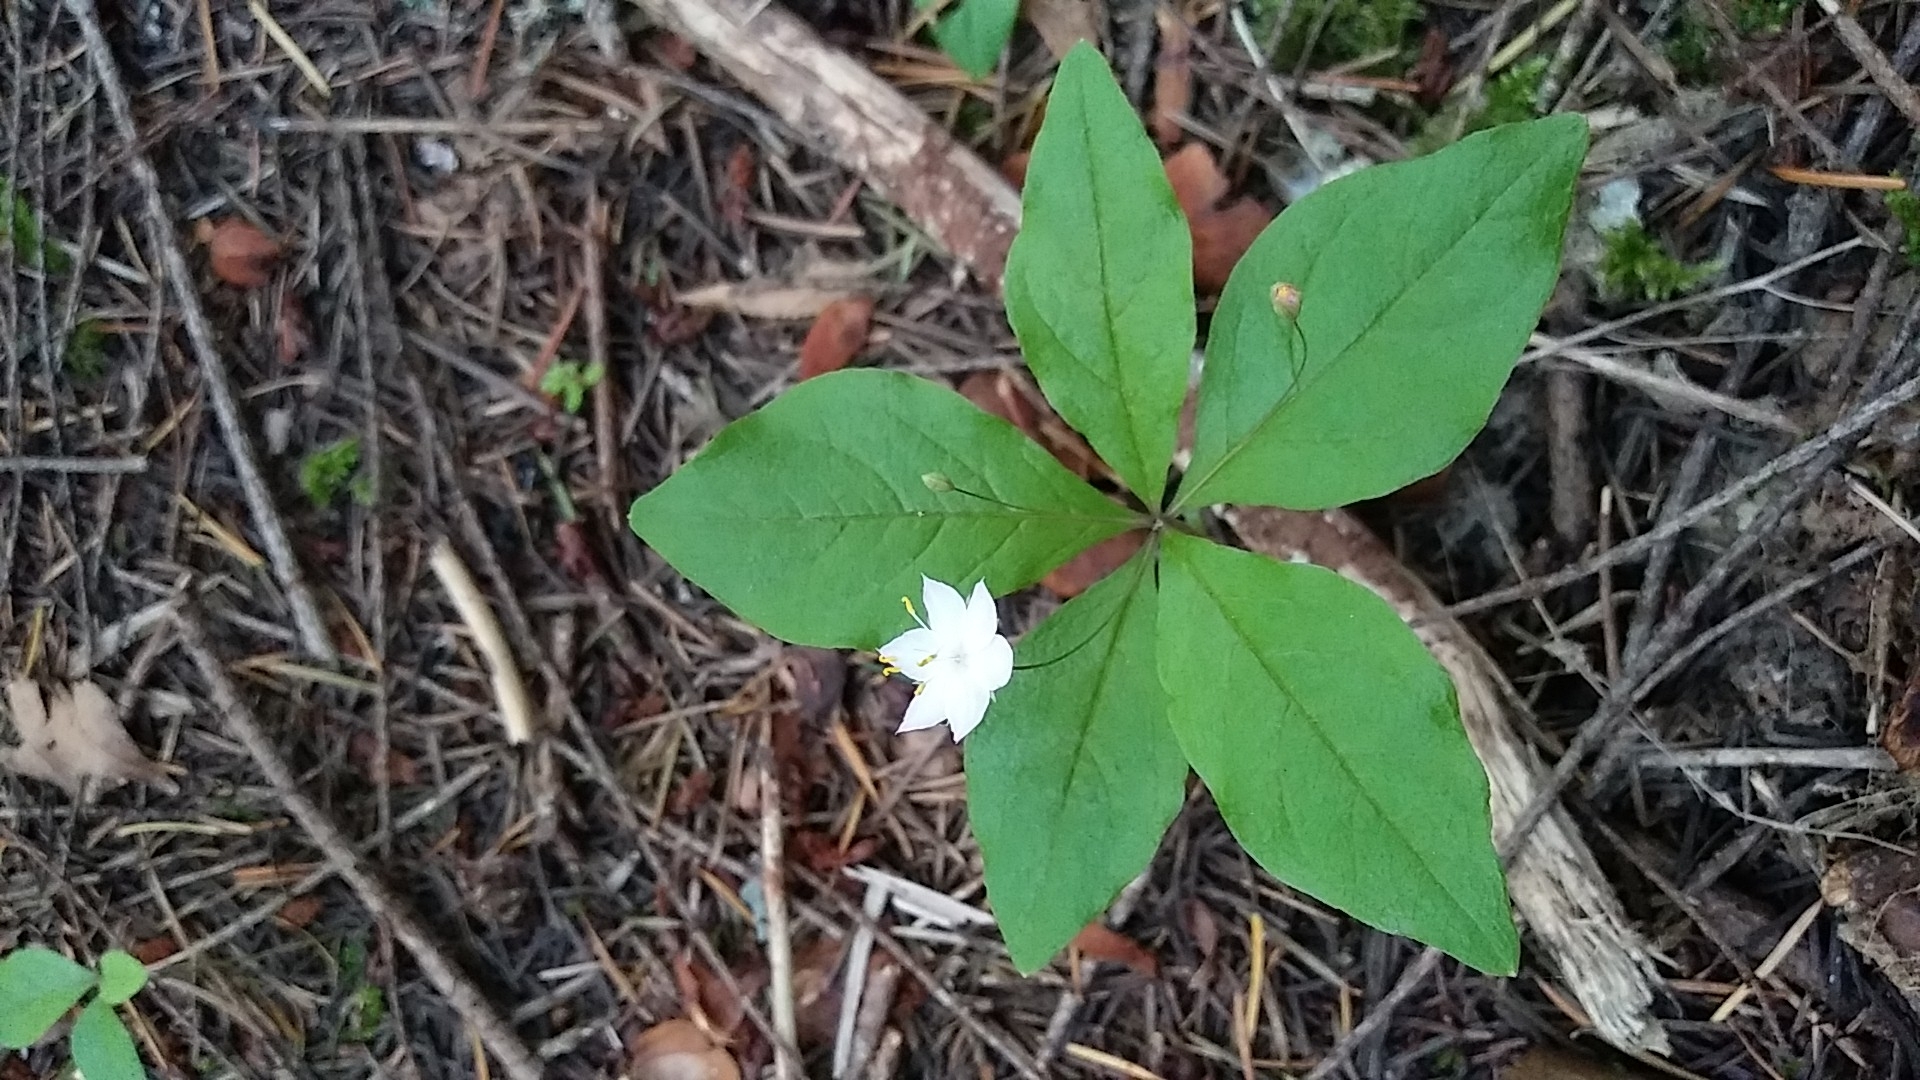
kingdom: Plantae
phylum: Tracheophyta
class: Magnoliopsida
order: Ericales
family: Primulaceae
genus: Lysimachia
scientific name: Lysimachia latifolia
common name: Pacific starflower
